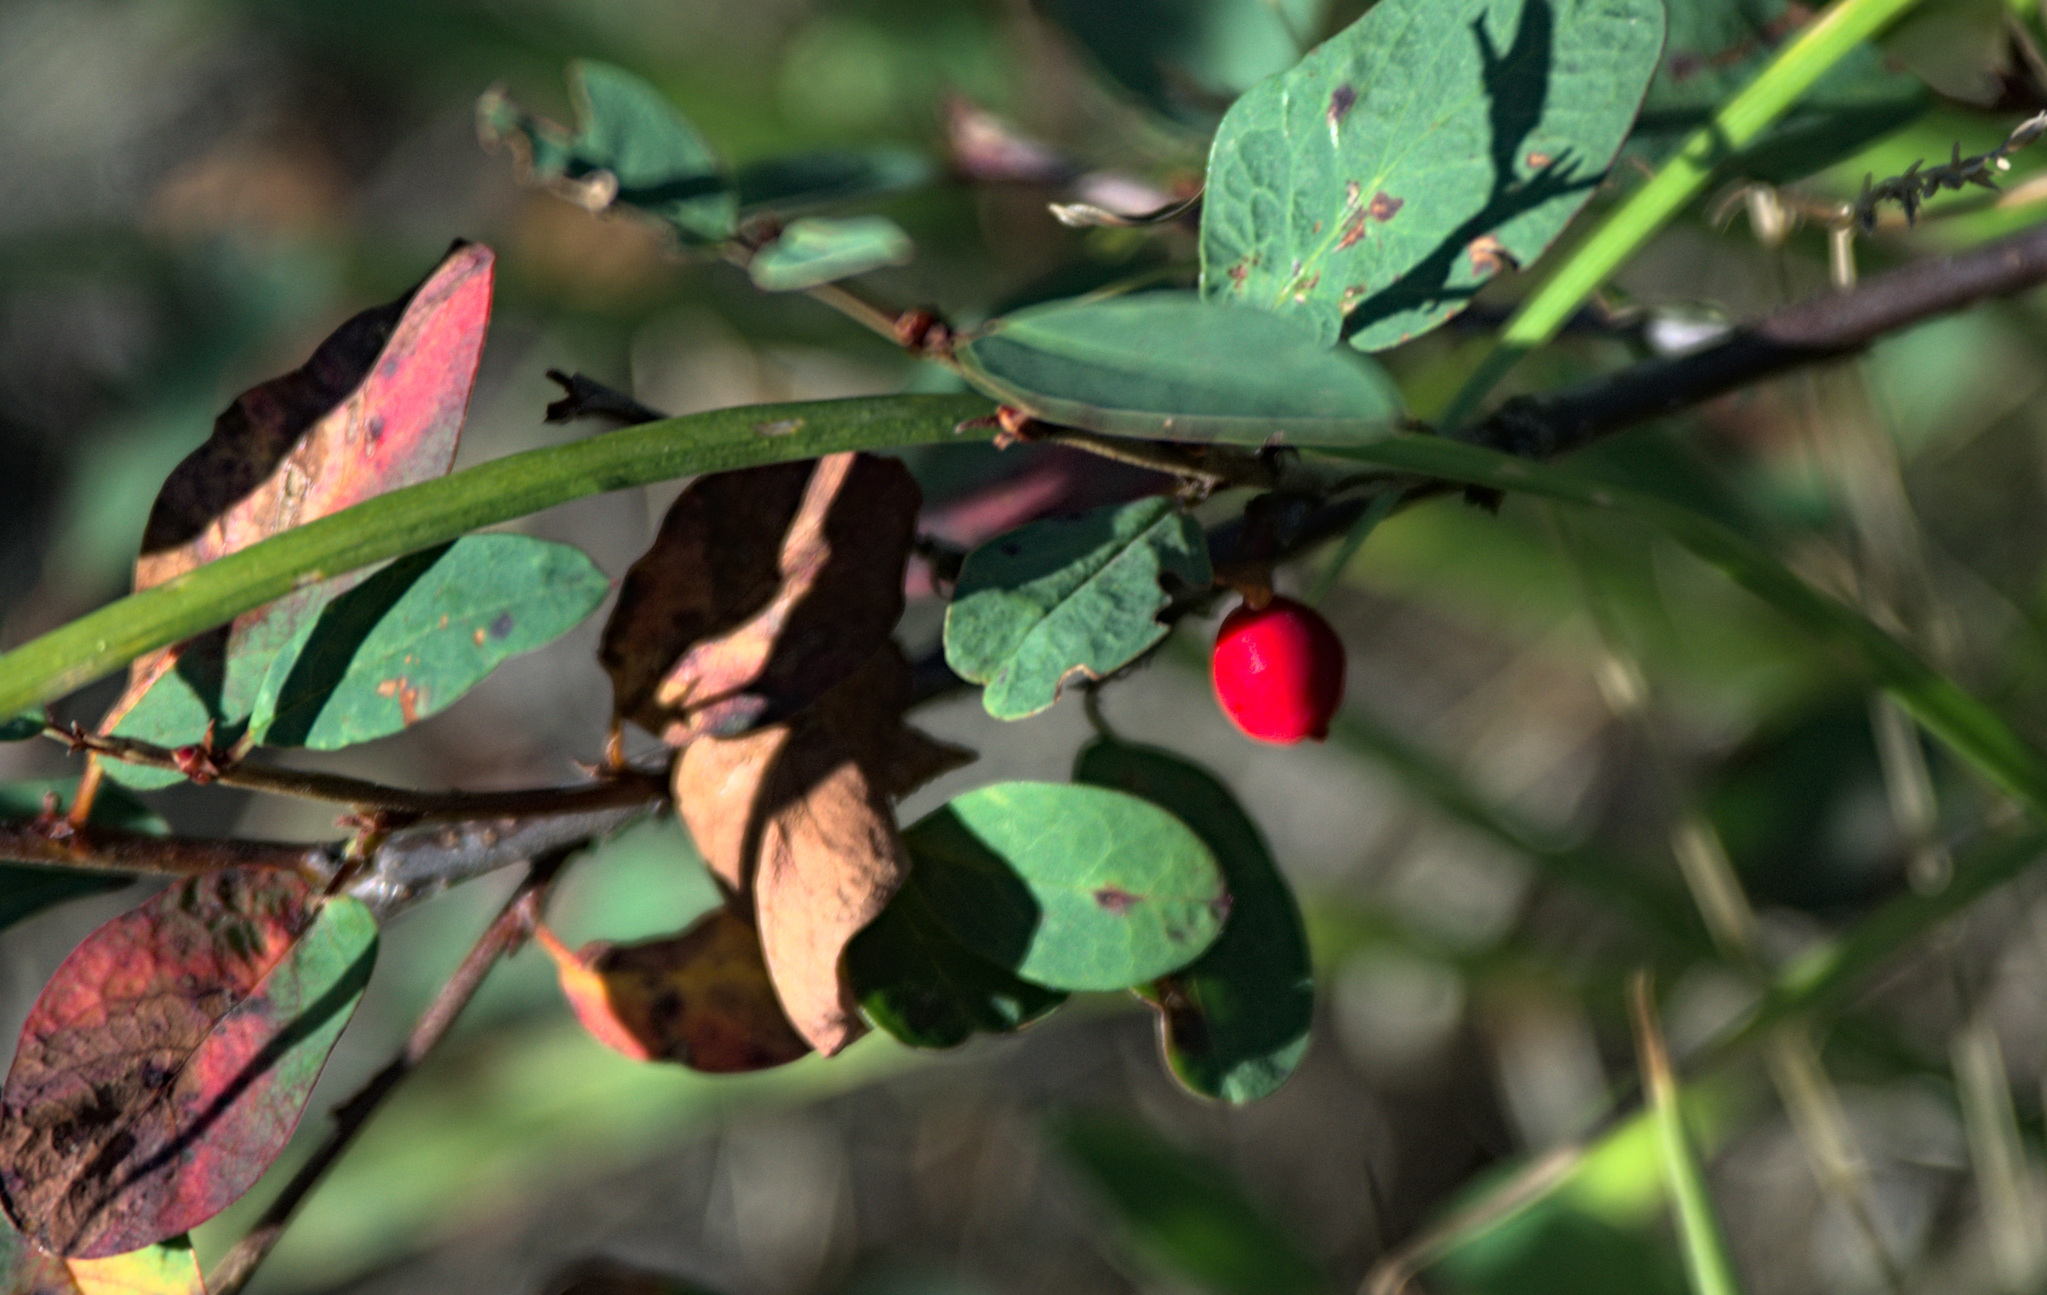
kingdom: Plantae
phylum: Tracheophyta
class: Magnoliopsida
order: Dipsacales
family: Caprifoliaceae
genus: Lonicera
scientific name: Lonicera microphylla
